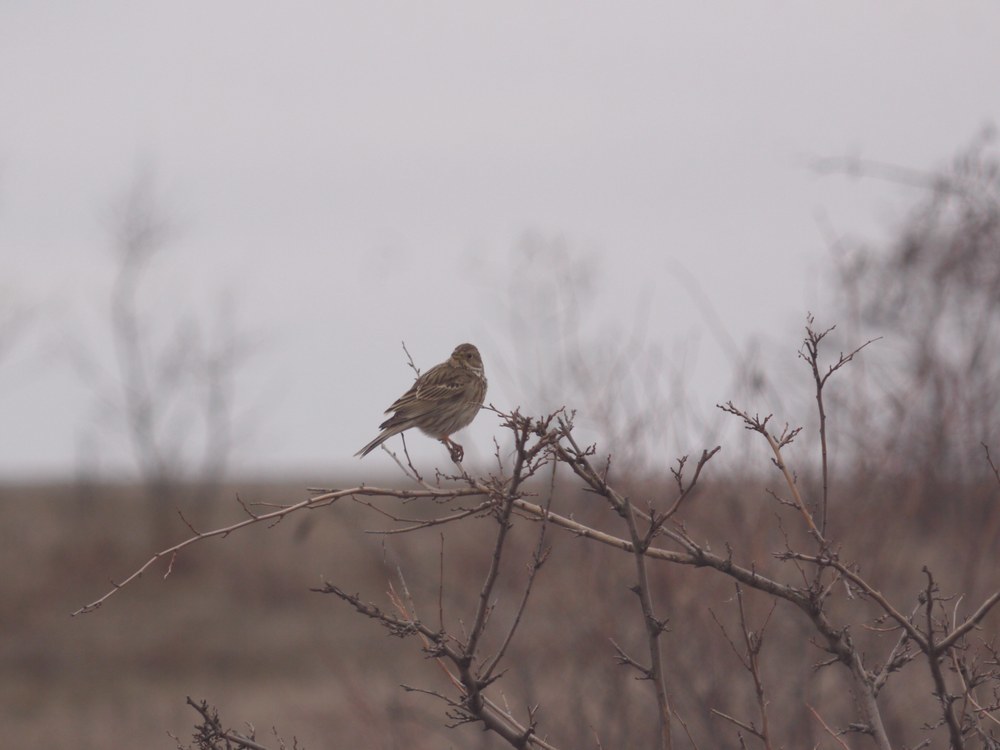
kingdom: Animalia
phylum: Chordata
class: Aves
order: Passeriformes
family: Emberizidae
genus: Emberiza
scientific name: Emberiza calandra
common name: Corn bunting
